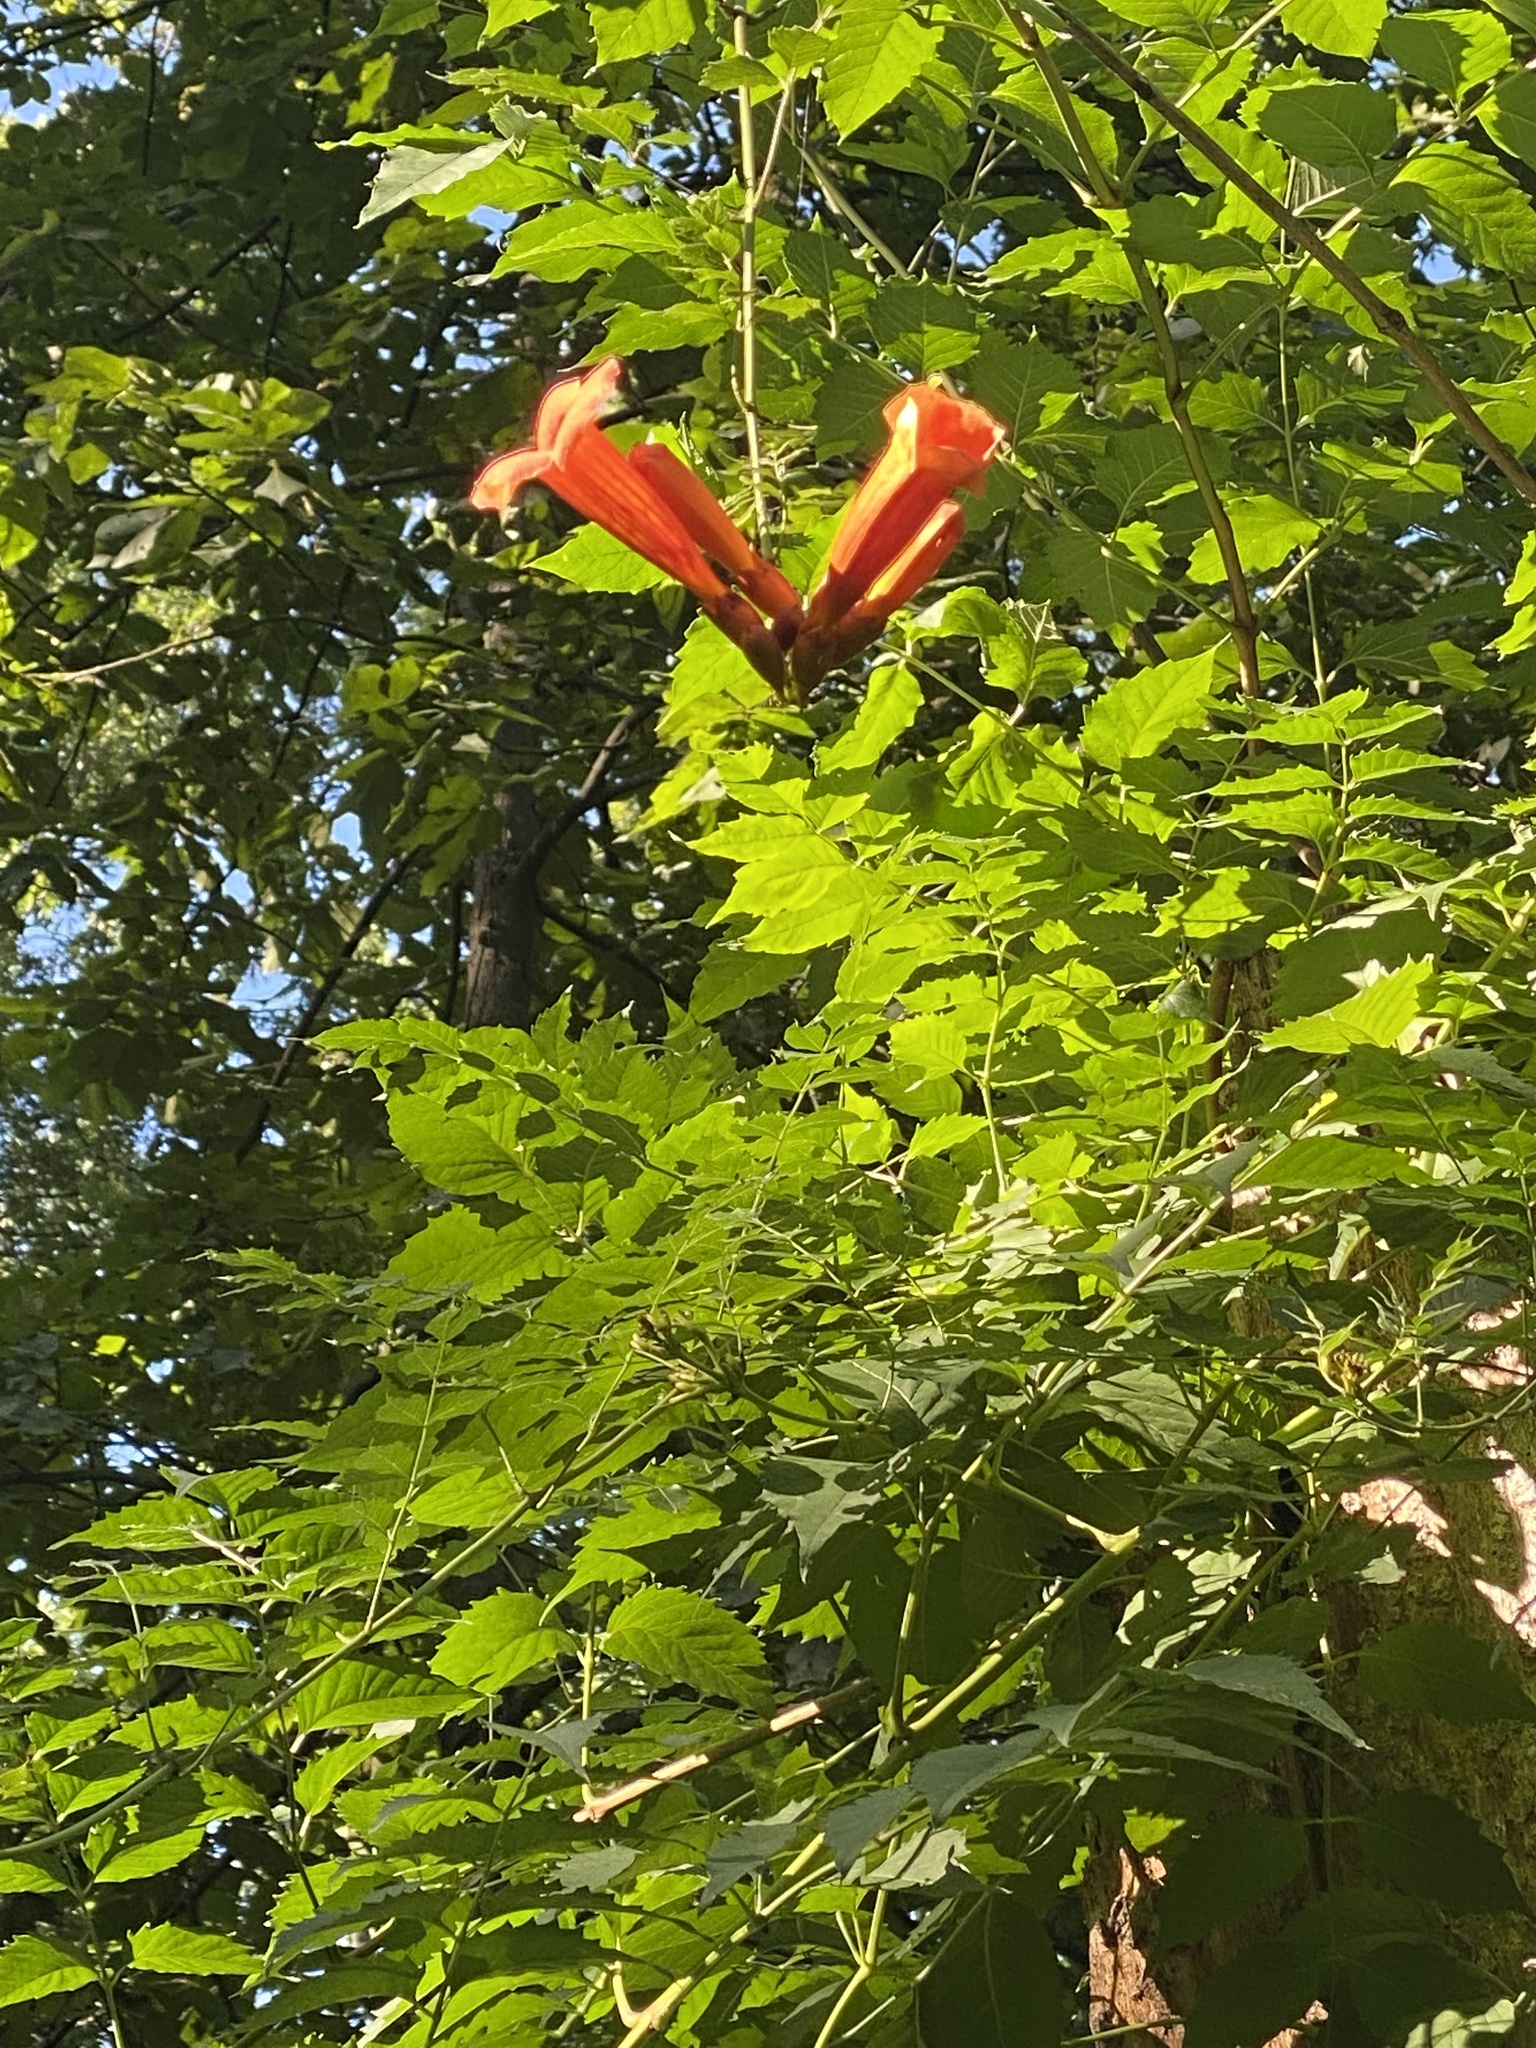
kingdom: Plantae
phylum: Tracheophyta
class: Magnoliopsida
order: Lamiales
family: Bignoniaceae
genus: Campsis
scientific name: Campsis radicans
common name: Trumpet-creeper
